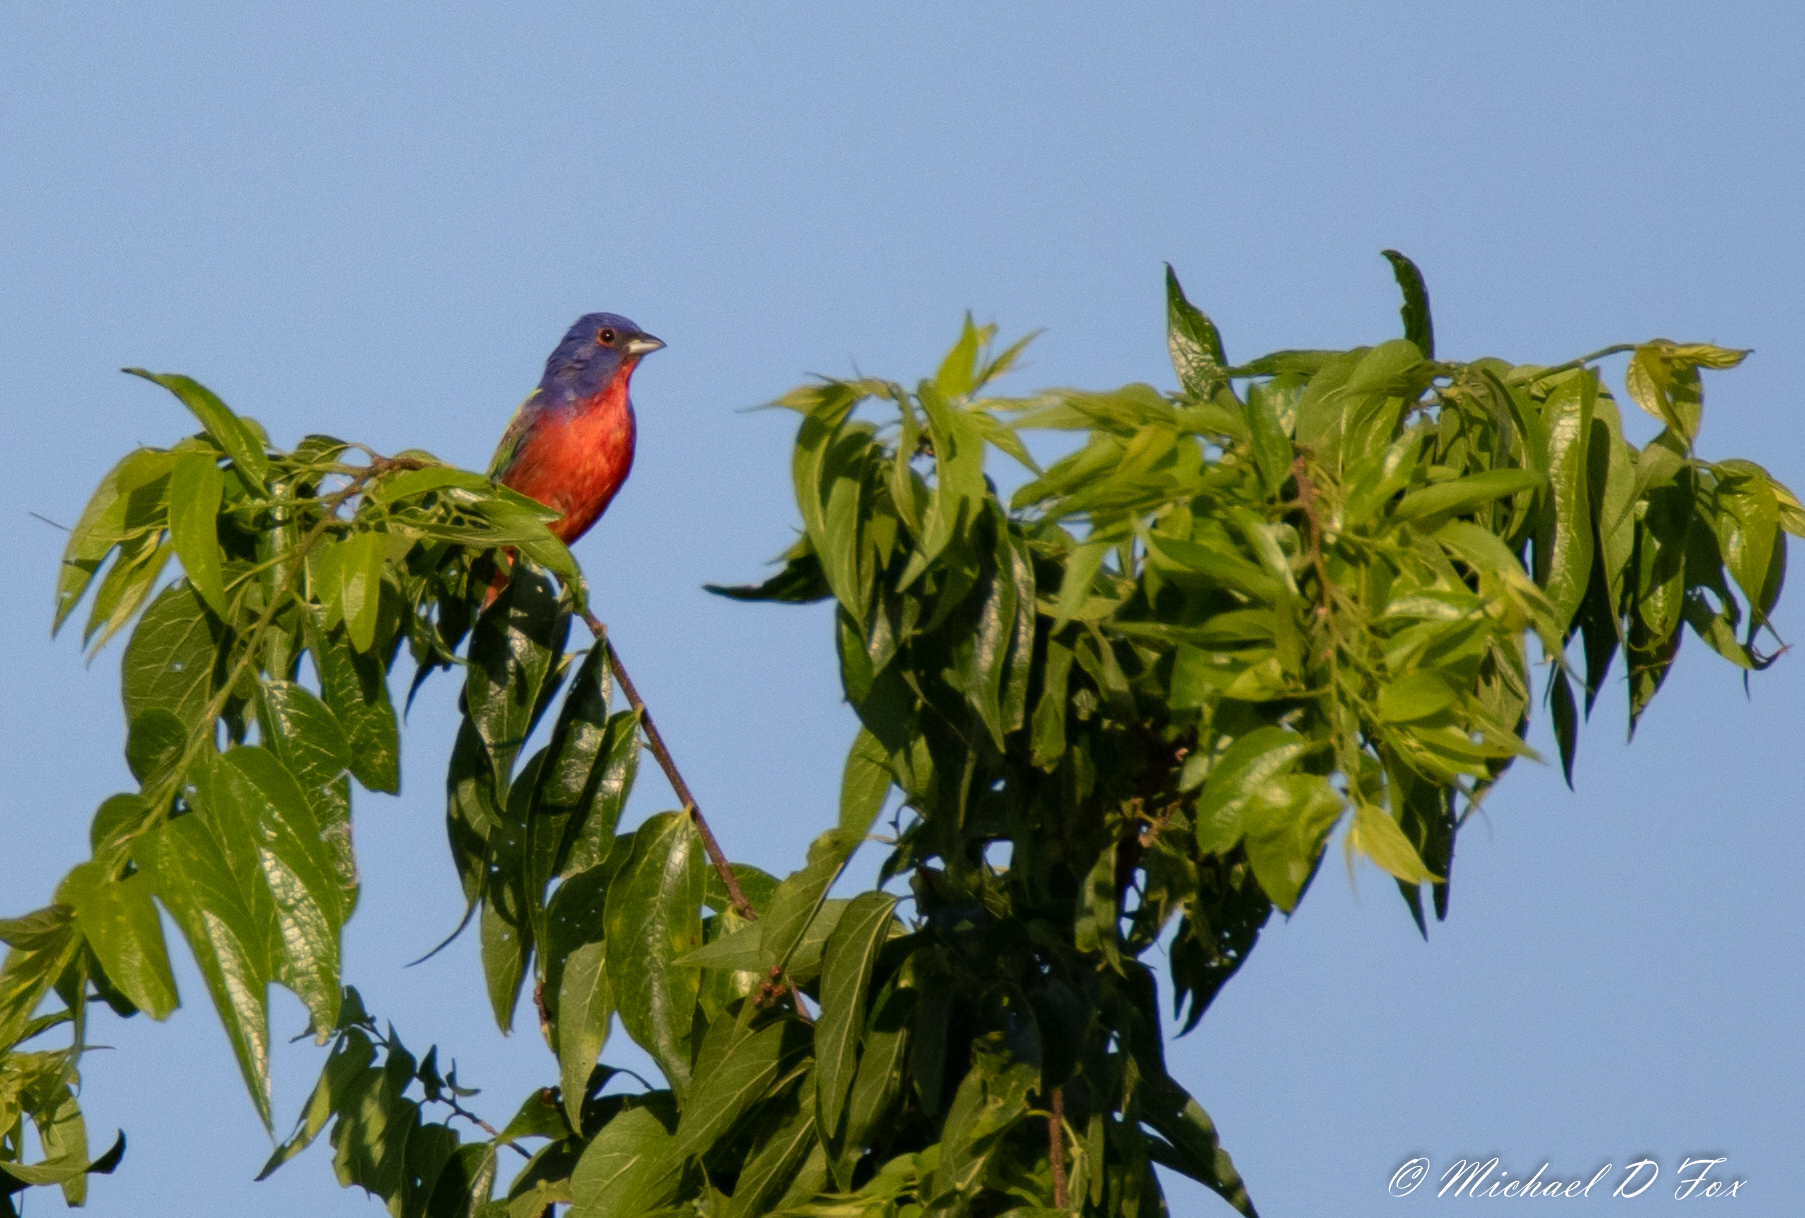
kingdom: Animalia
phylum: Chordata
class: Aves
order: Passeriformes
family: Cardinalidae
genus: Passerina
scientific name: Passerina ciris
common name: Painted bunting
